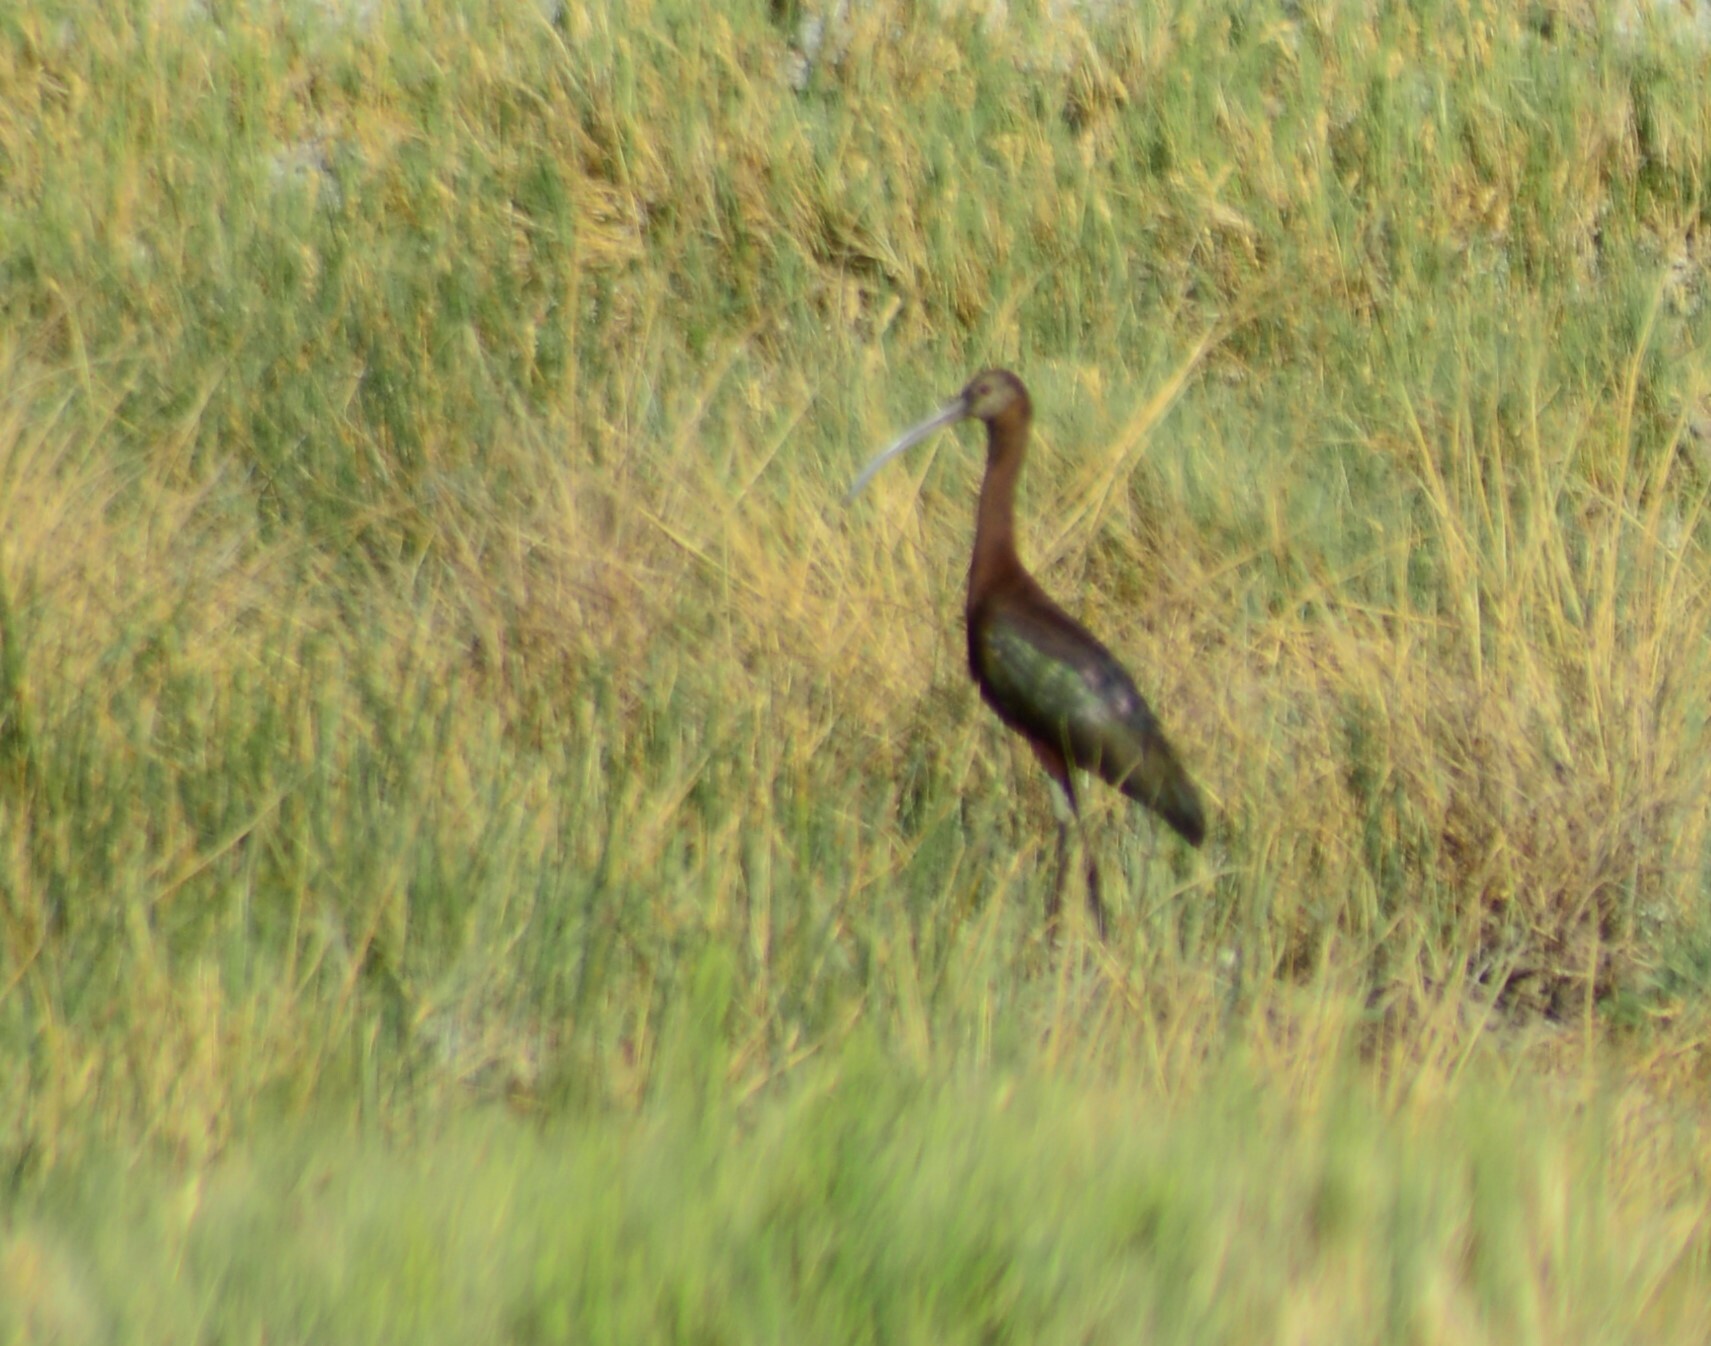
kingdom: Animalia
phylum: Chordata
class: Aves
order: Pelecaniformes
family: Threskiornithidae
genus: Plegadis
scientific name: Plegadis chihi
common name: White-faced ibis
